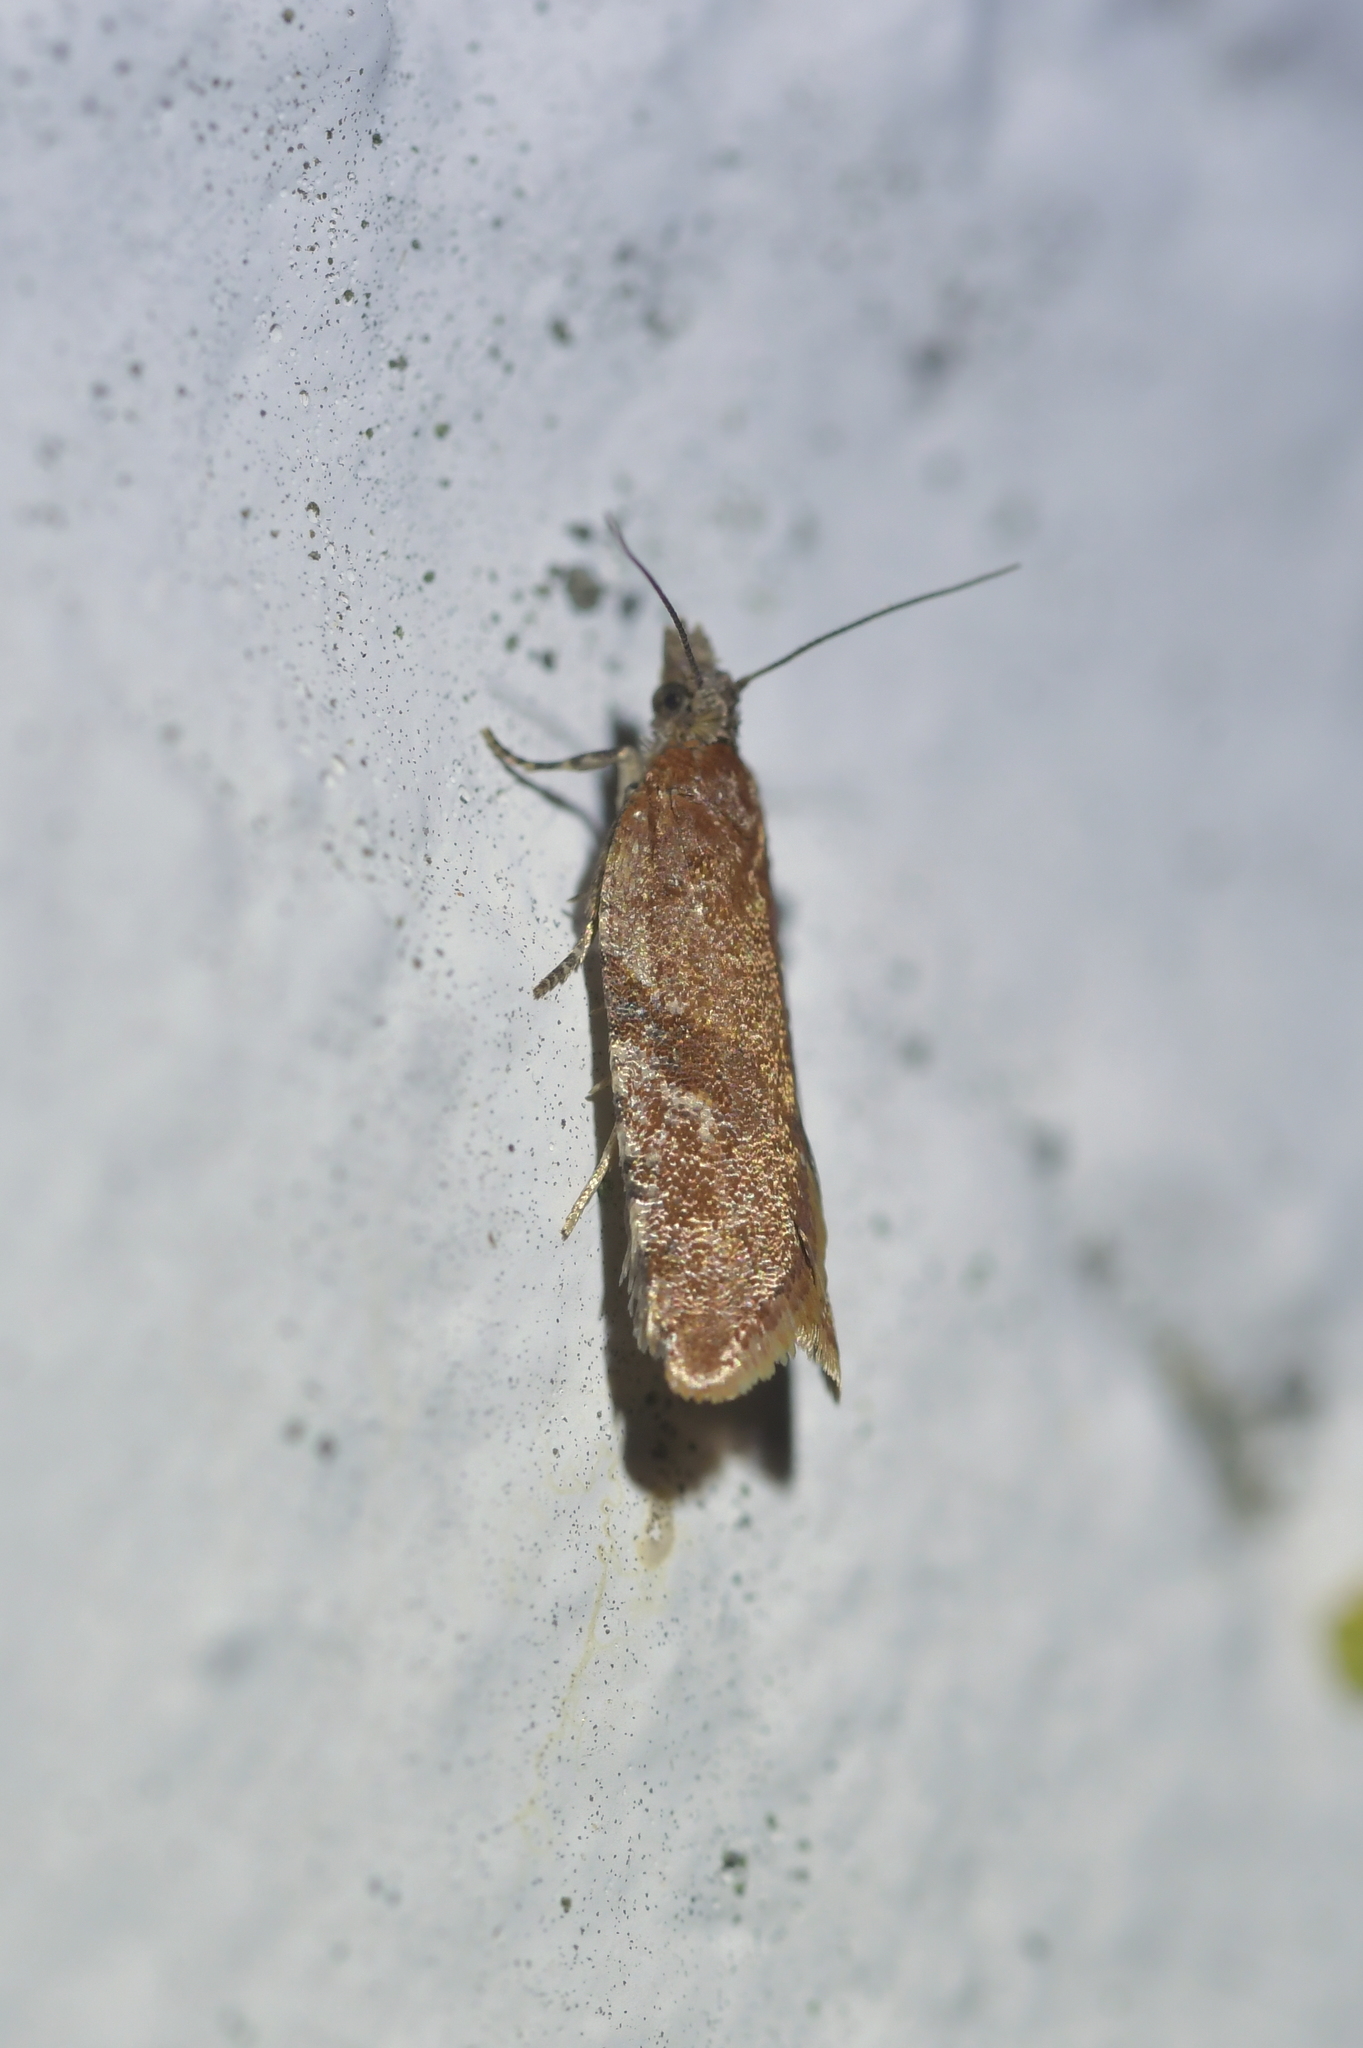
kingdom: Animalia
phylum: Arthropoda
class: Insecta
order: Lepidoptera
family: Tortricidae
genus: Capua
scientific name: Capua semiferana
